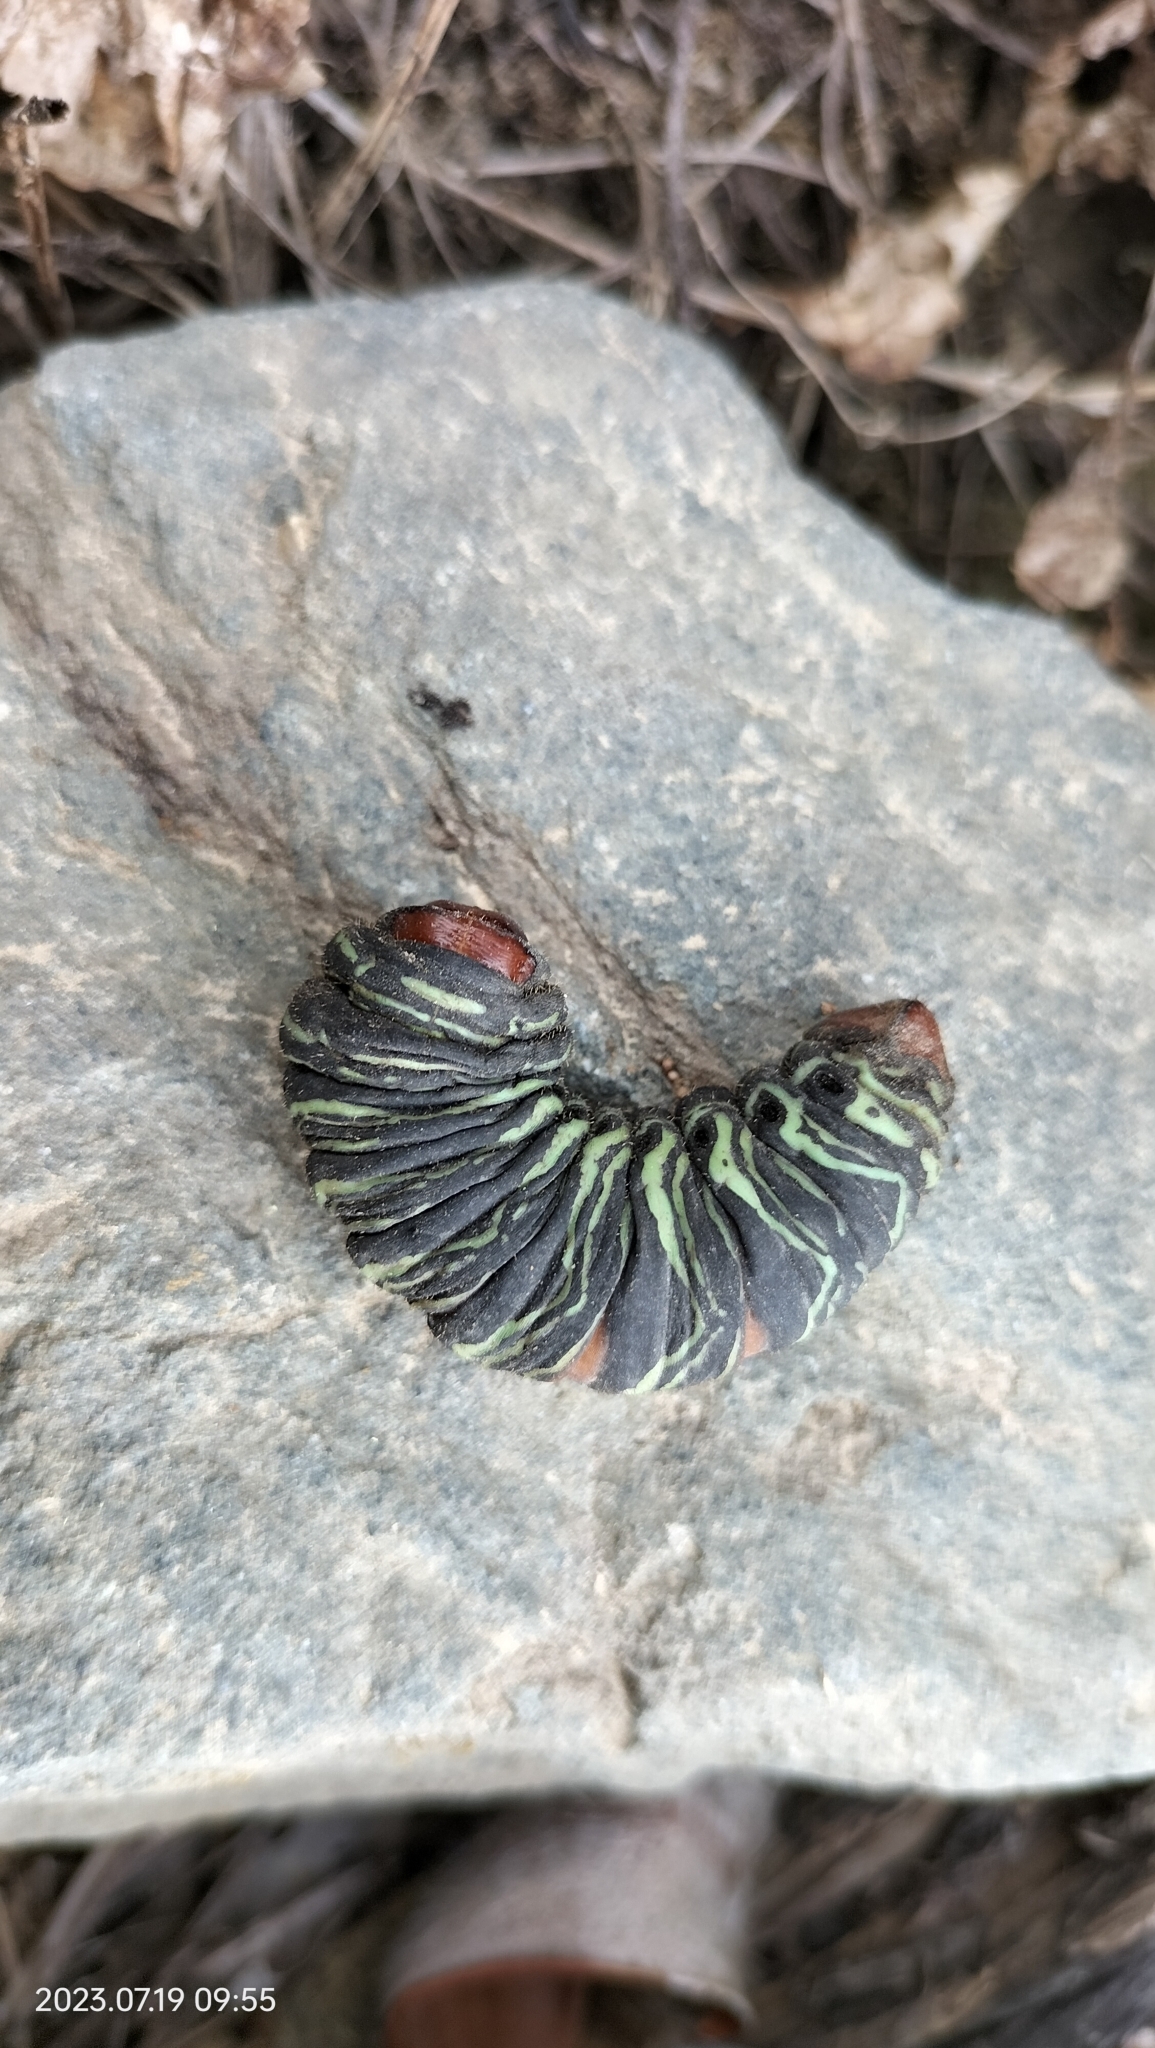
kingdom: Animalia
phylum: Arthropoda
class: Insecta
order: Lepidoptera
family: Saturniidae
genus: Arsenura
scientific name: Arsenura armida
